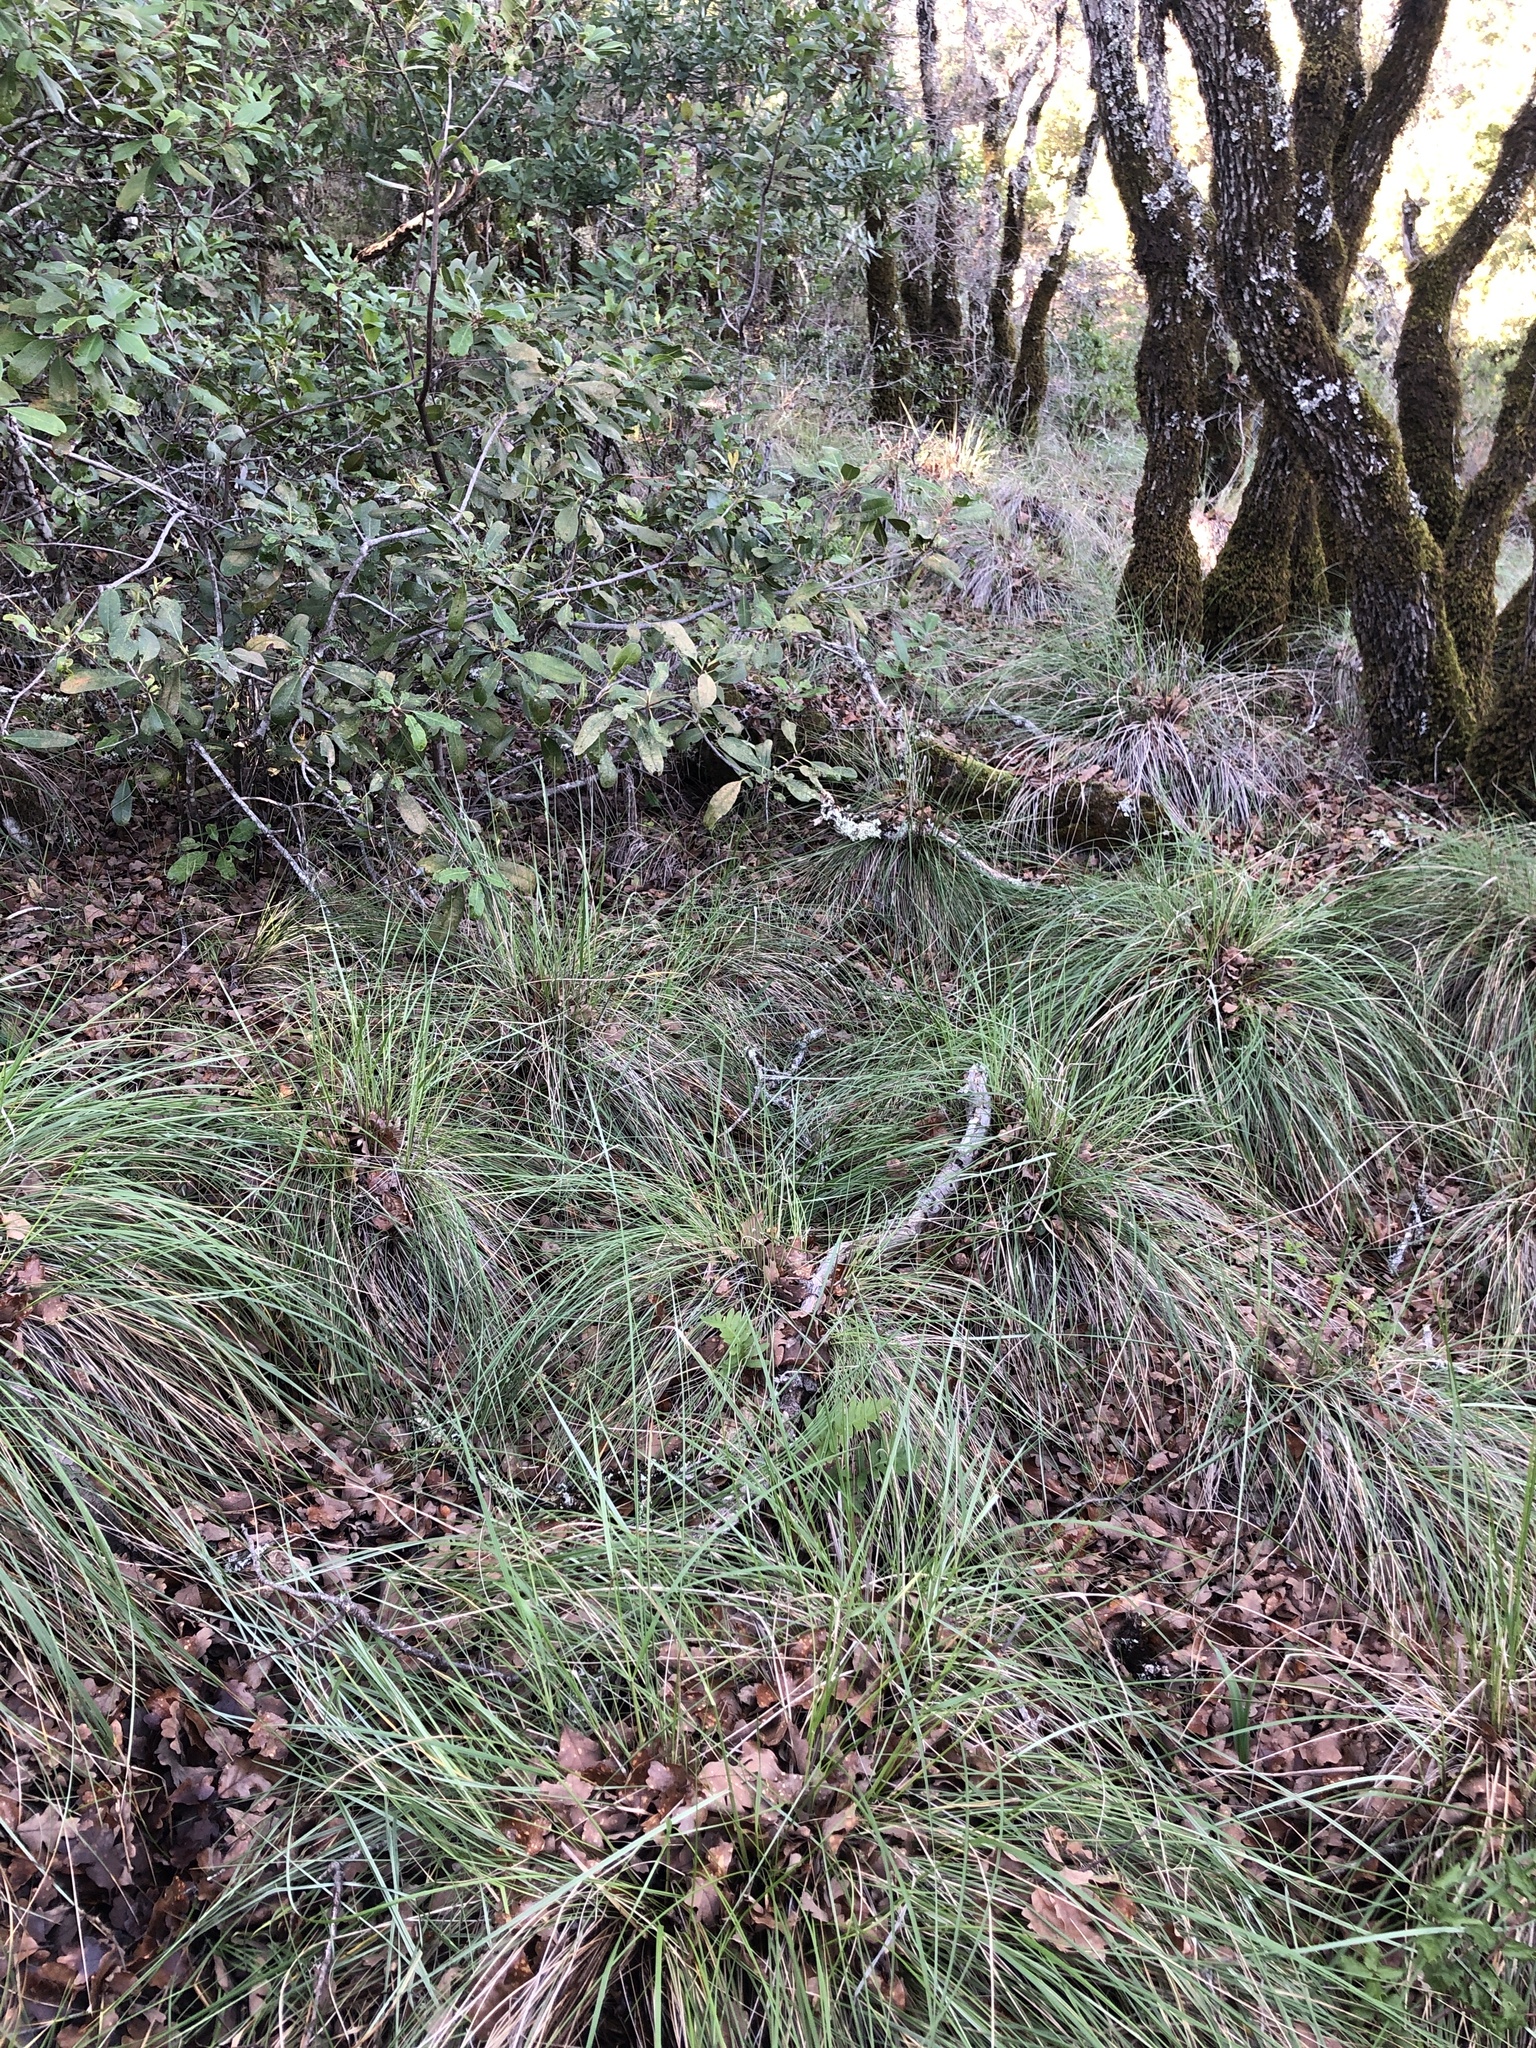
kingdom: Plantae
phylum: Tracheophyta
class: Liliopsida
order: Poales
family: Poaceae
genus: Festuca
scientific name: Festuca californica
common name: California fescue
